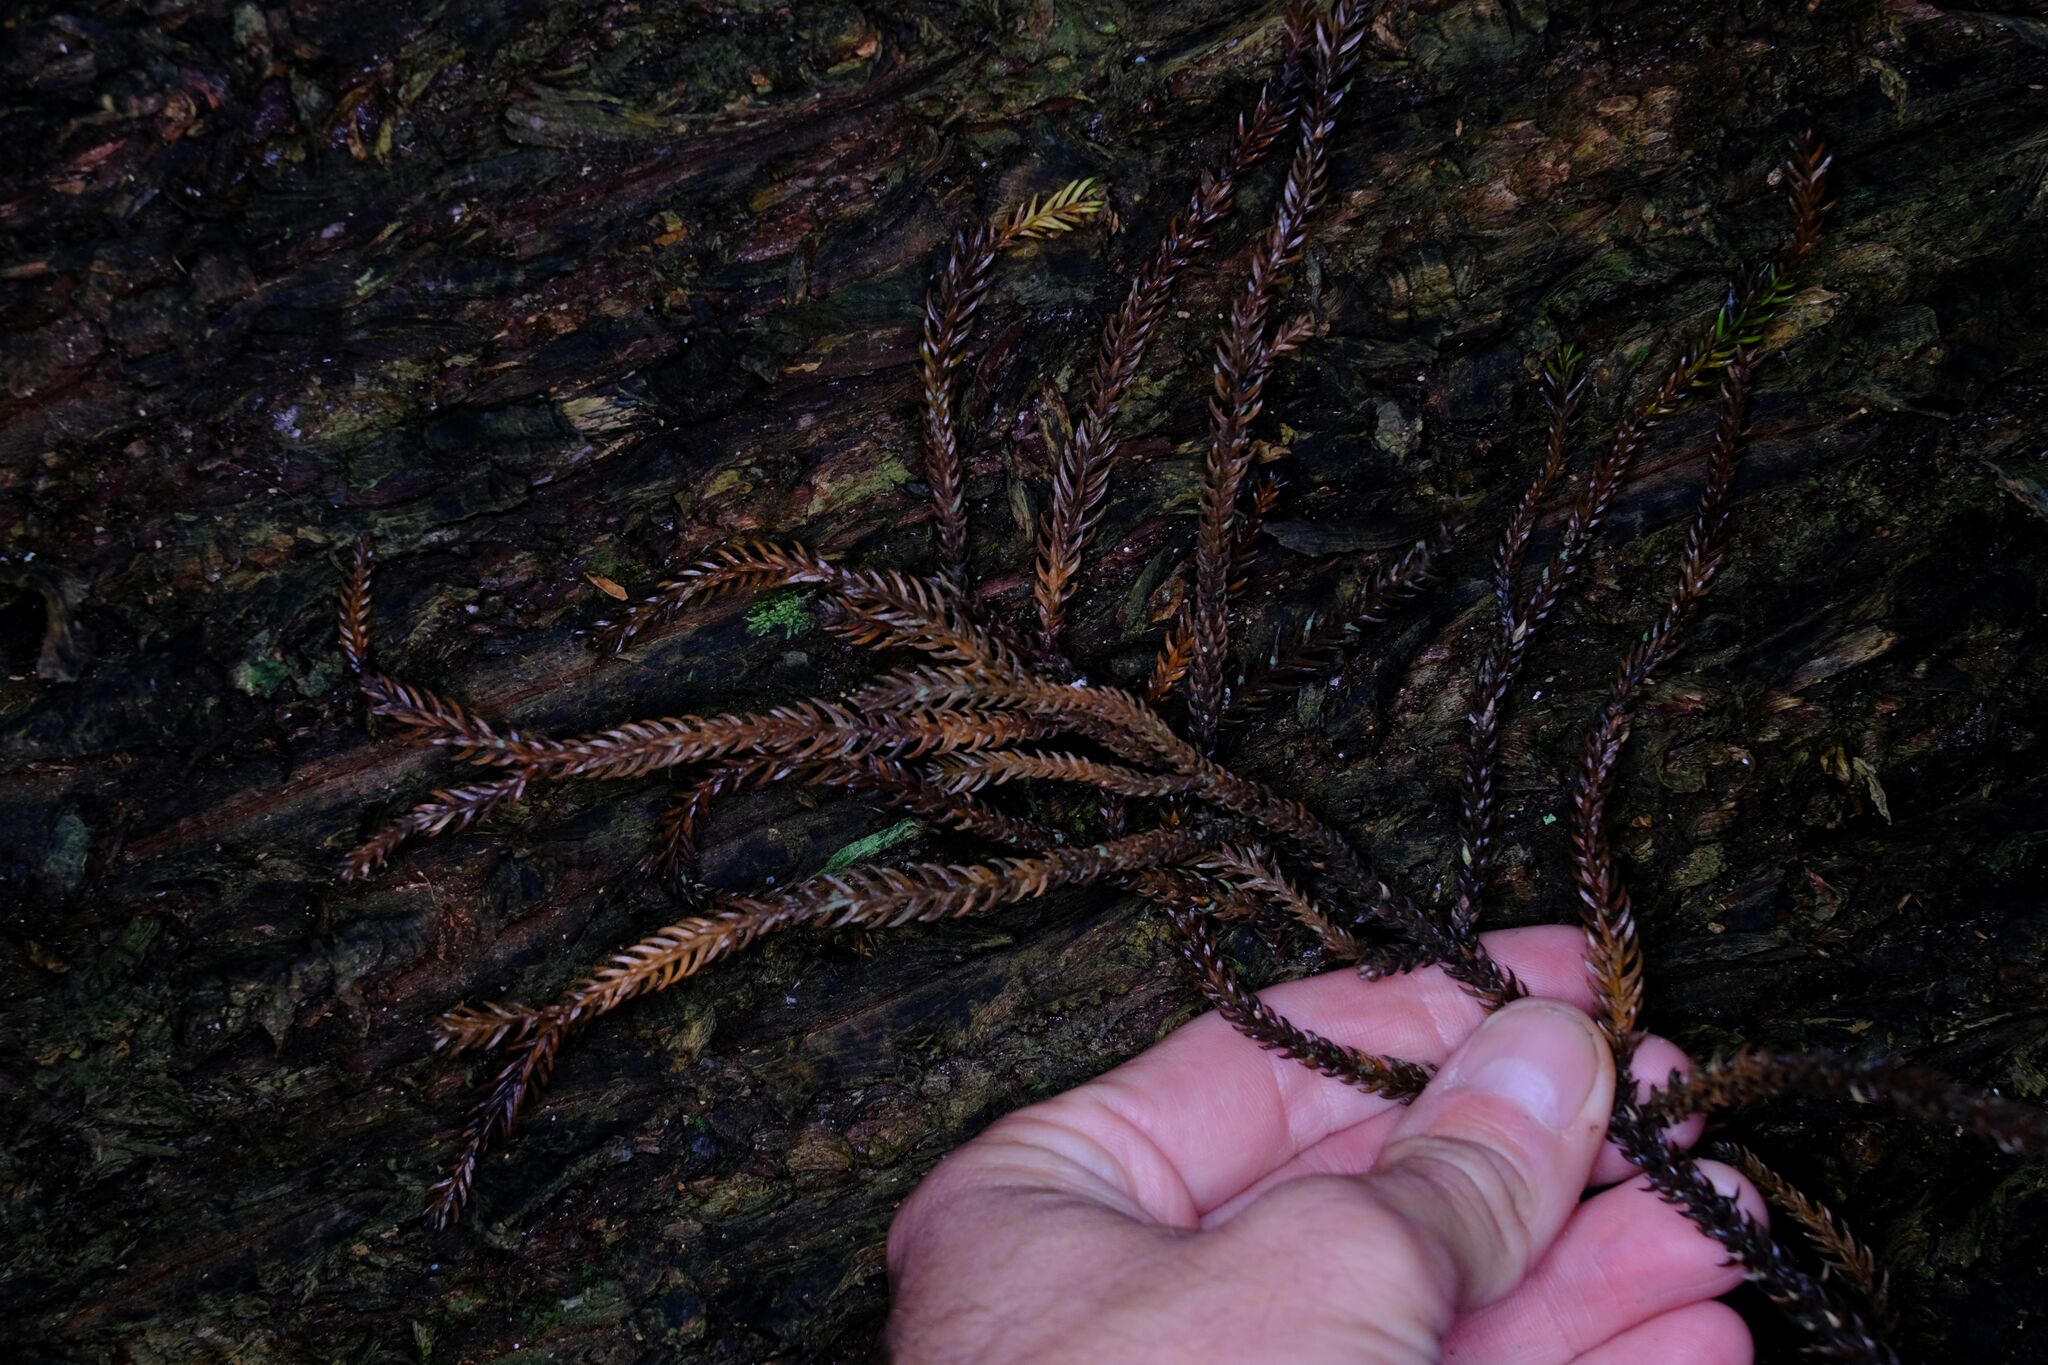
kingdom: Plantae
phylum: Tracheophyta
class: Pinopsida
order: Pinales
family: Araucariaceae
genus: Araucaria
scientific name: Araucaria cunninghamii
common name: Colonial pine
